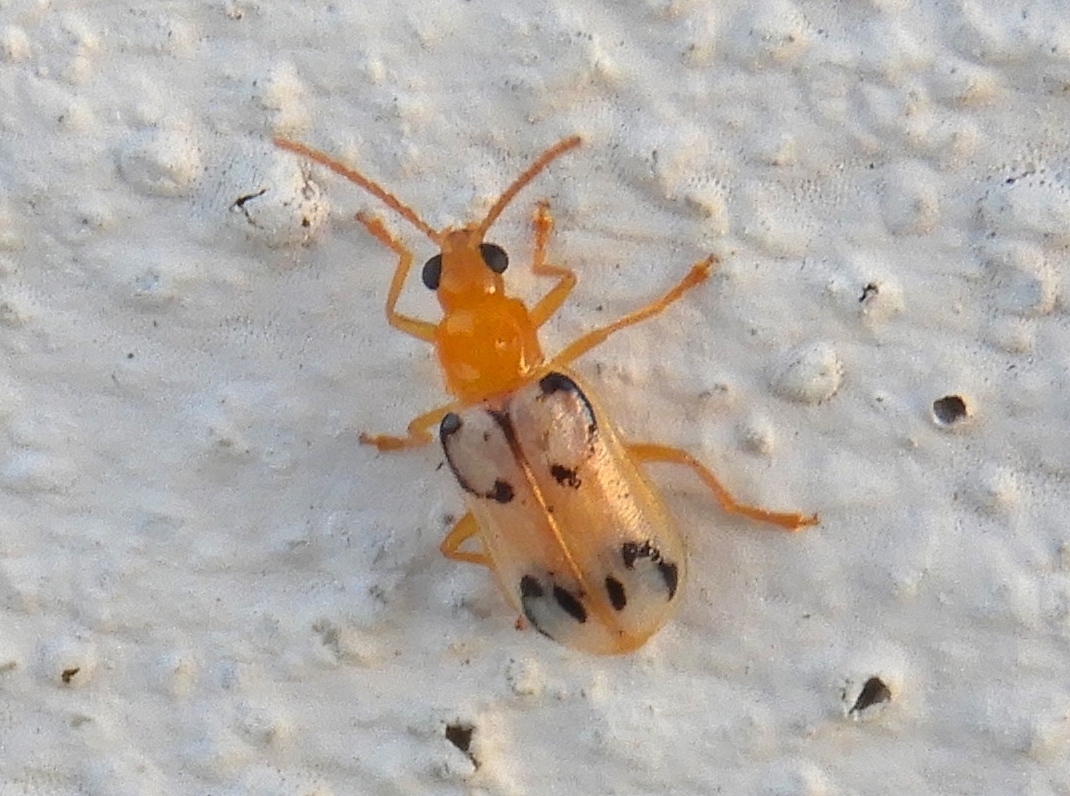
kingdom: Animalia
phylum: Arthropoda
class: Insecta
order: Coleoptera
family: Chrysomelidae
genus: Diabrotica
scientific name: Diabrotica
